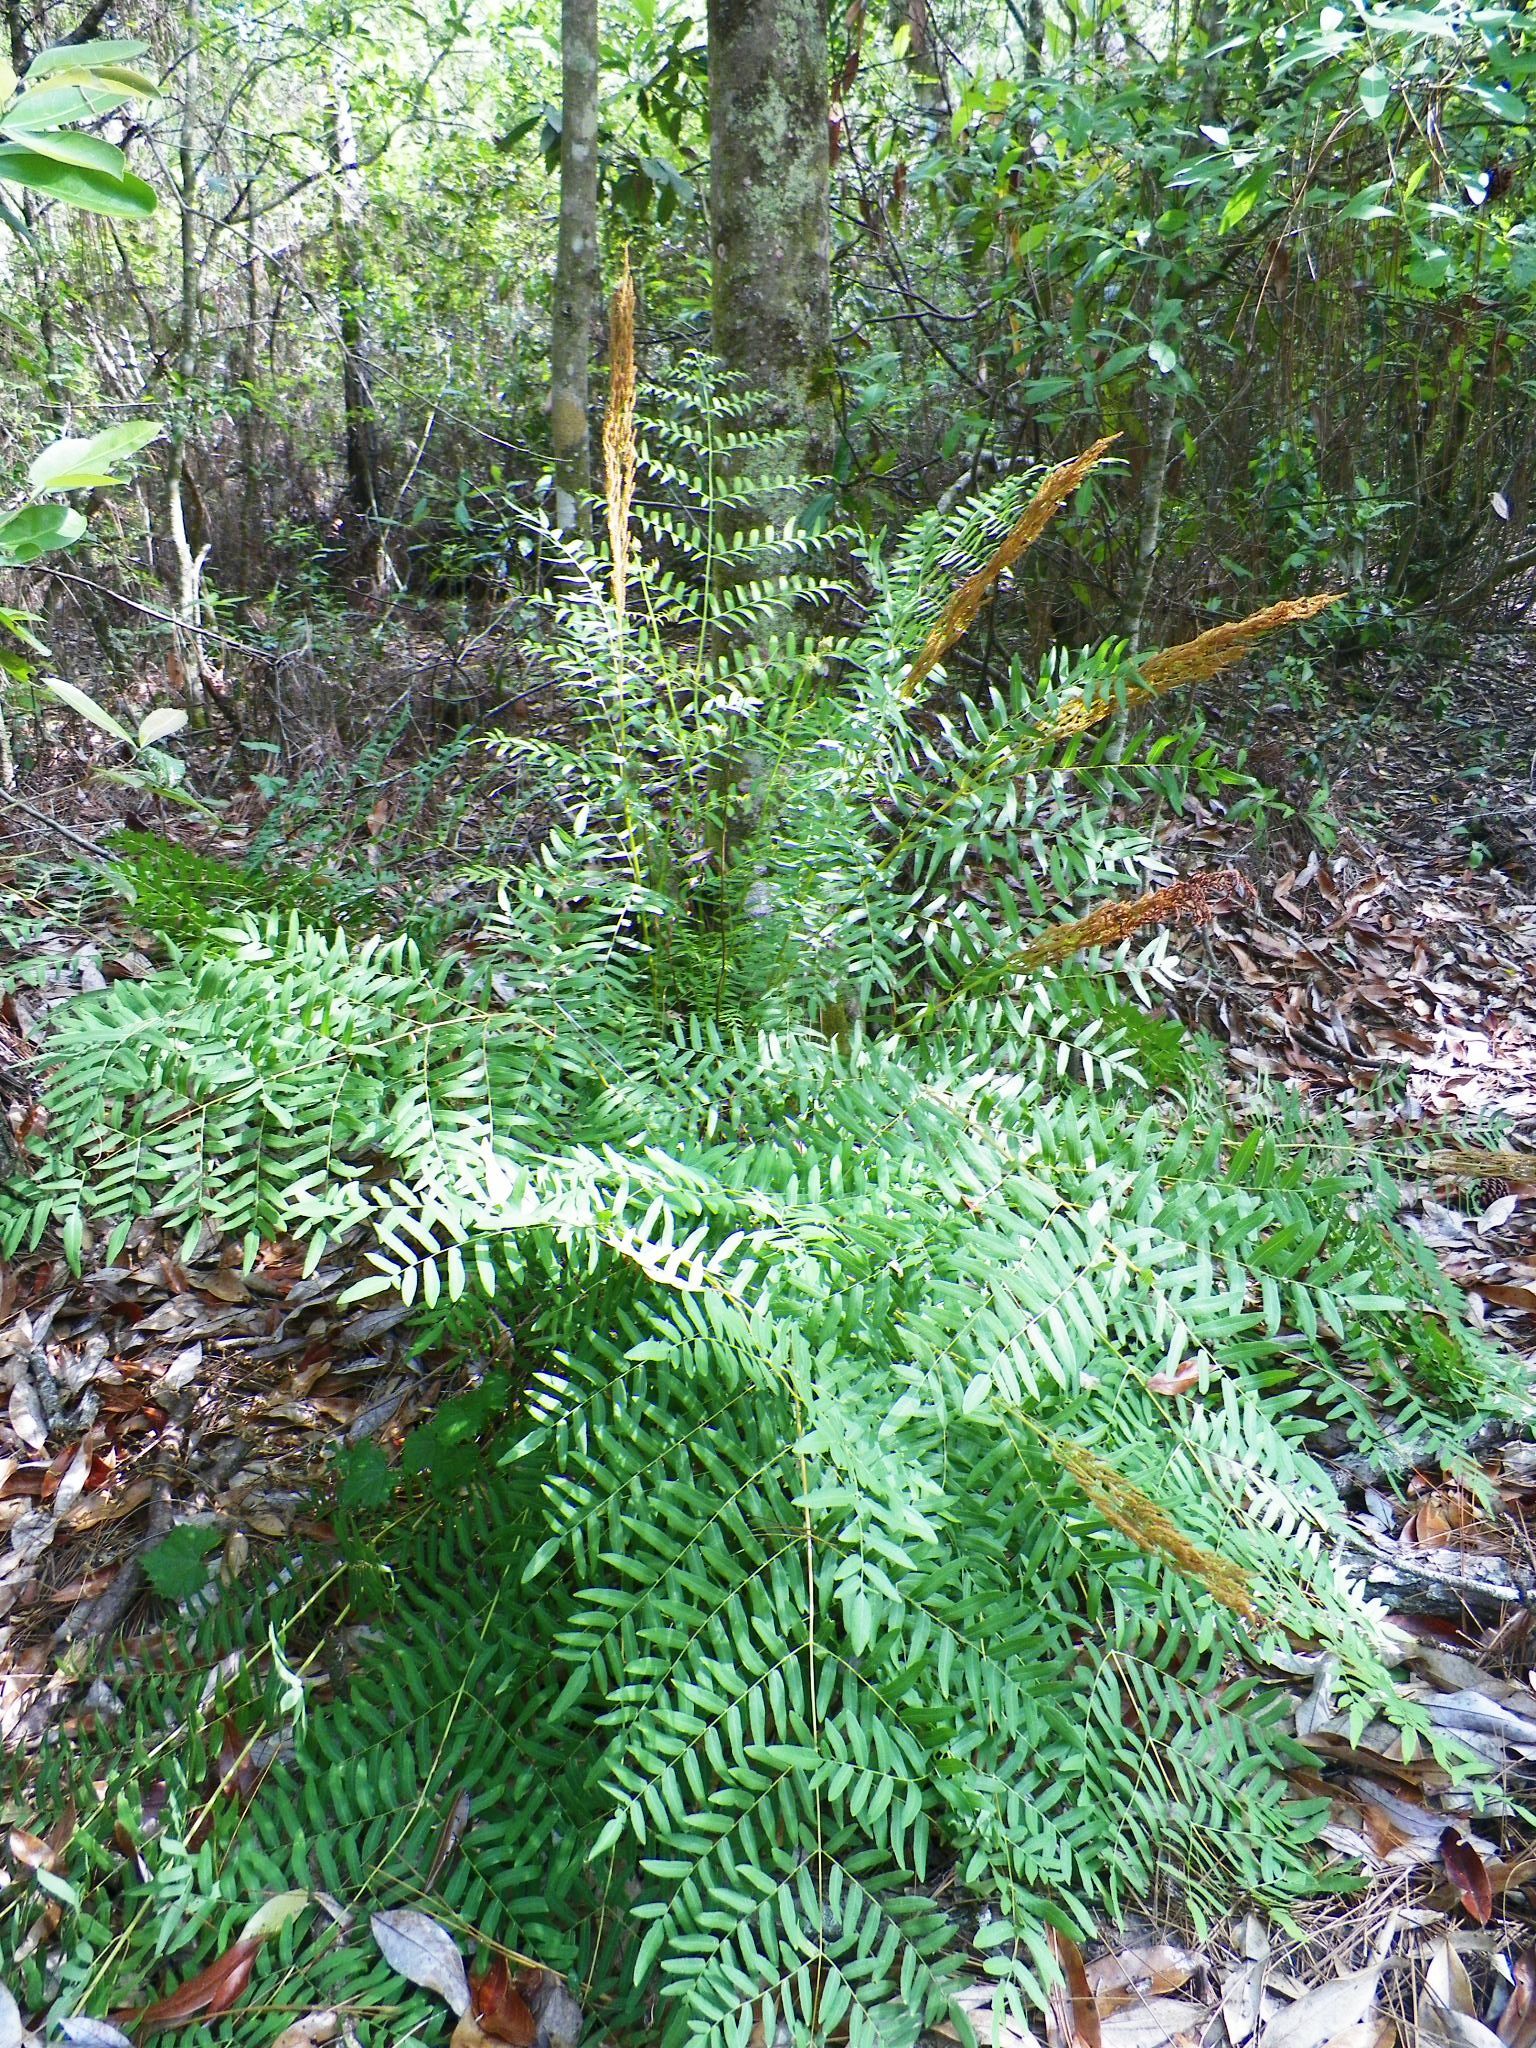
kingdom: Plantae
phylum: Tracheophyta
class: Polypodiopsida
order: Osmundales
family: Osmundaceae
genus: Osmunda
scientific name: Osmunda spectabilis
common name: American royal fern
